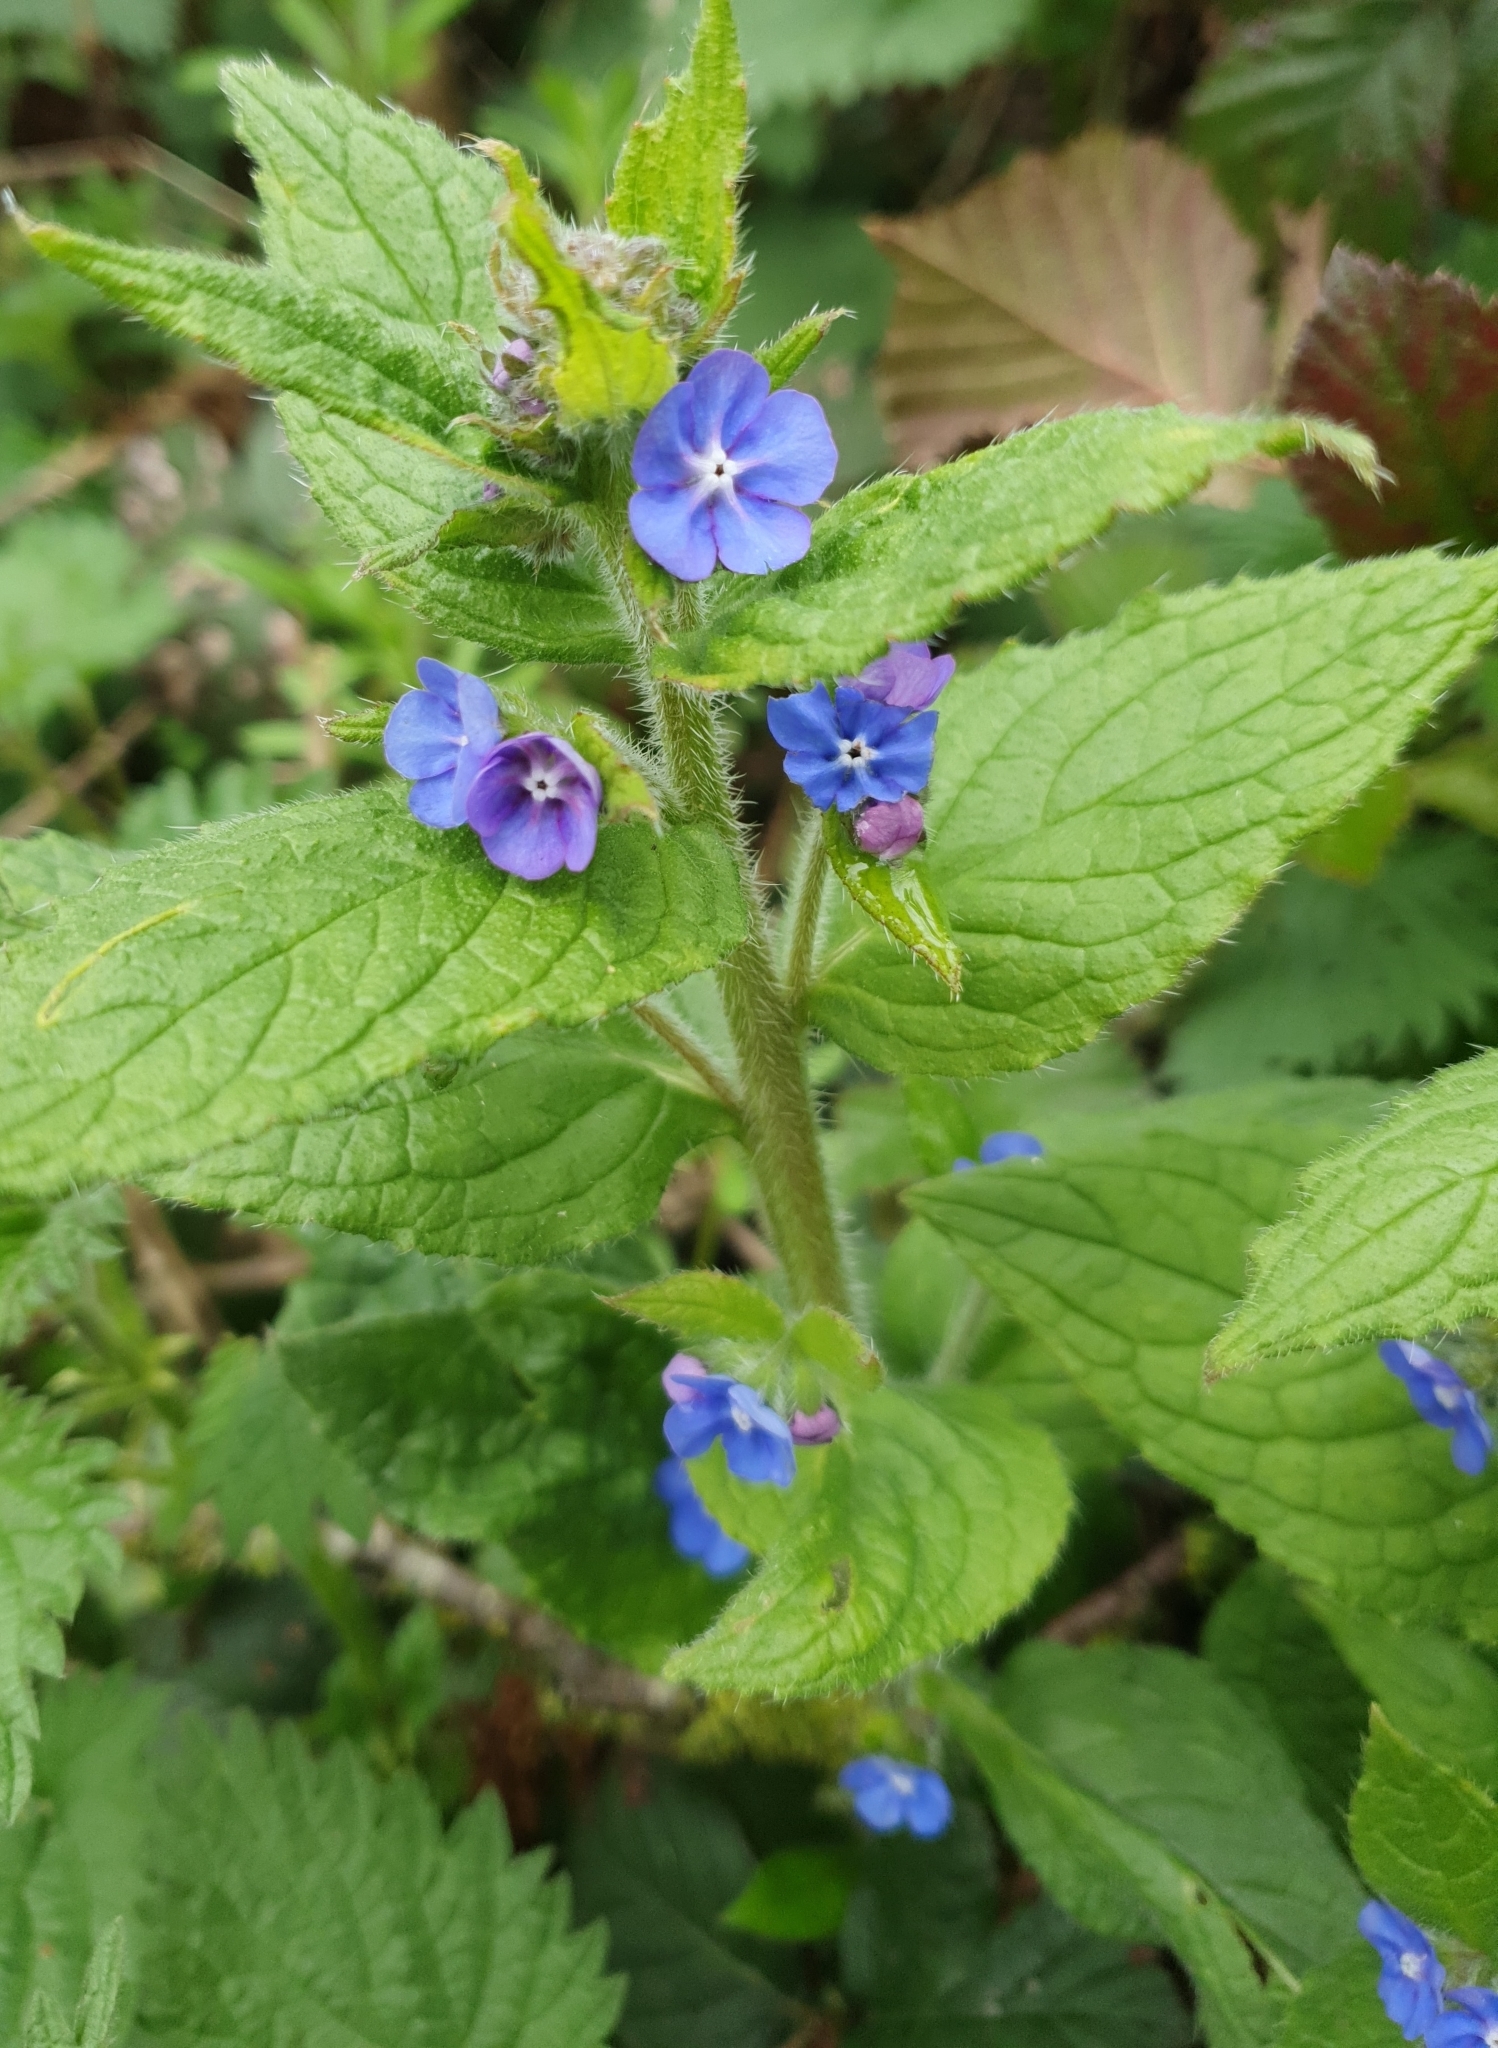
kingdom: Plantae
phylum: Tracheophyta
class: Magnoliopsida
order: Boraginales
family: Boraginaceae
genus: Pentaglottis
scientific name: Pentaglottis sempervirens
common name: Green alkanet
